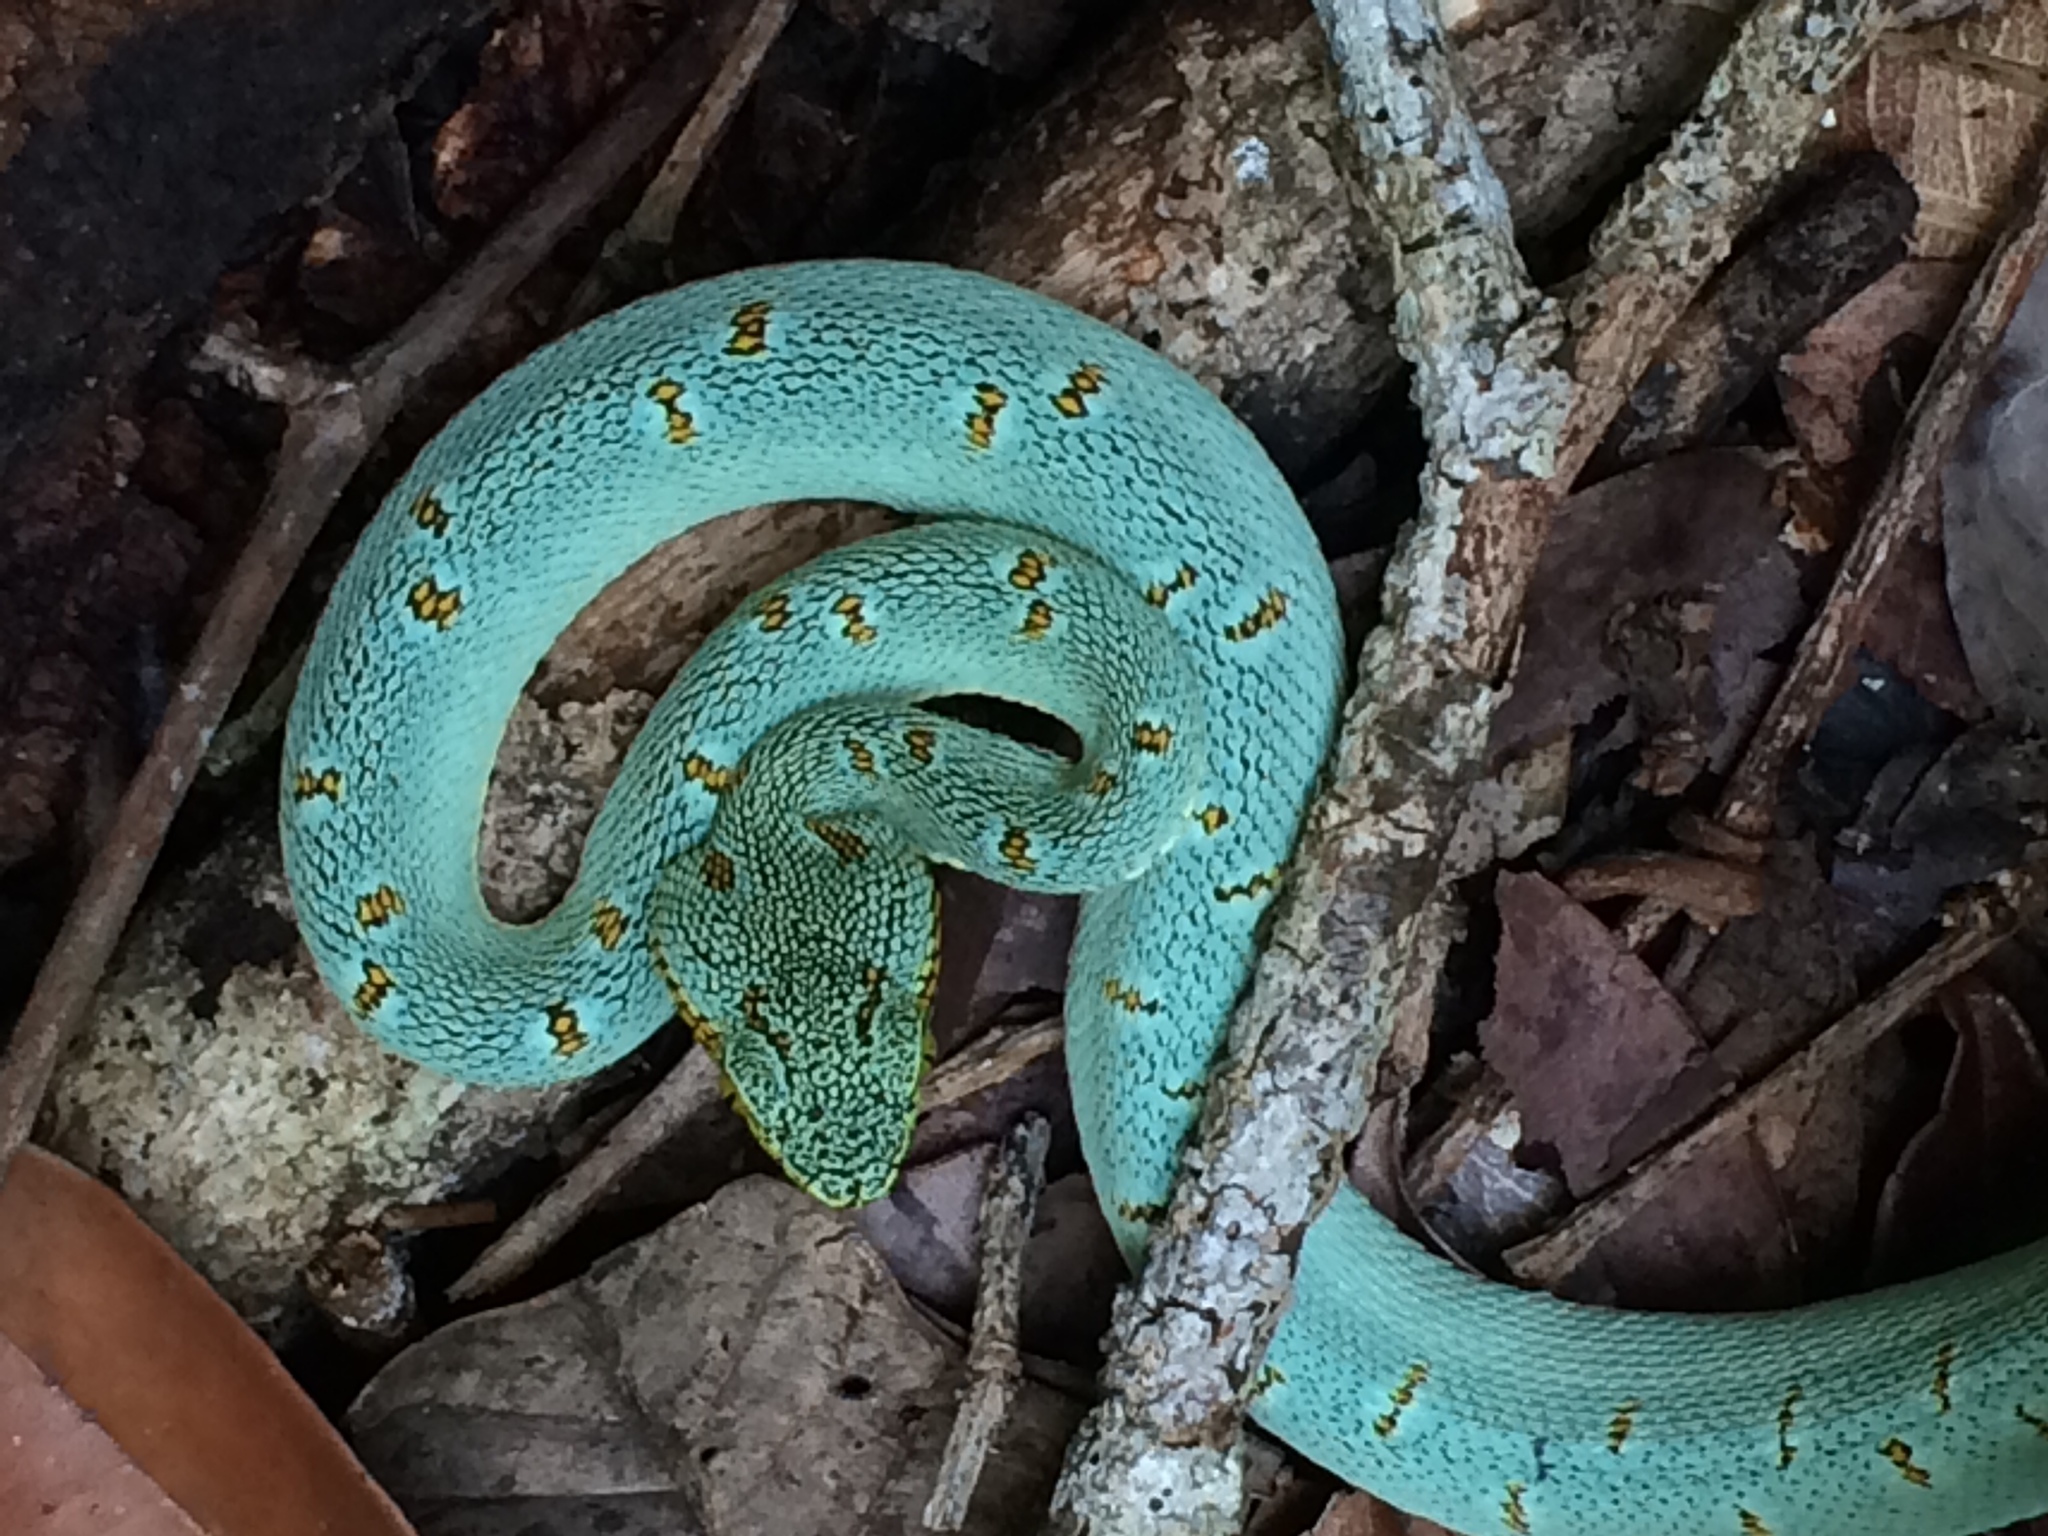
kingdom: Animalia
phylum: Chordata
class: Squamata
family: Viperidae
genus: Bothrops
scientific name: Bothrops bilineatus
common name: Green jararaca
